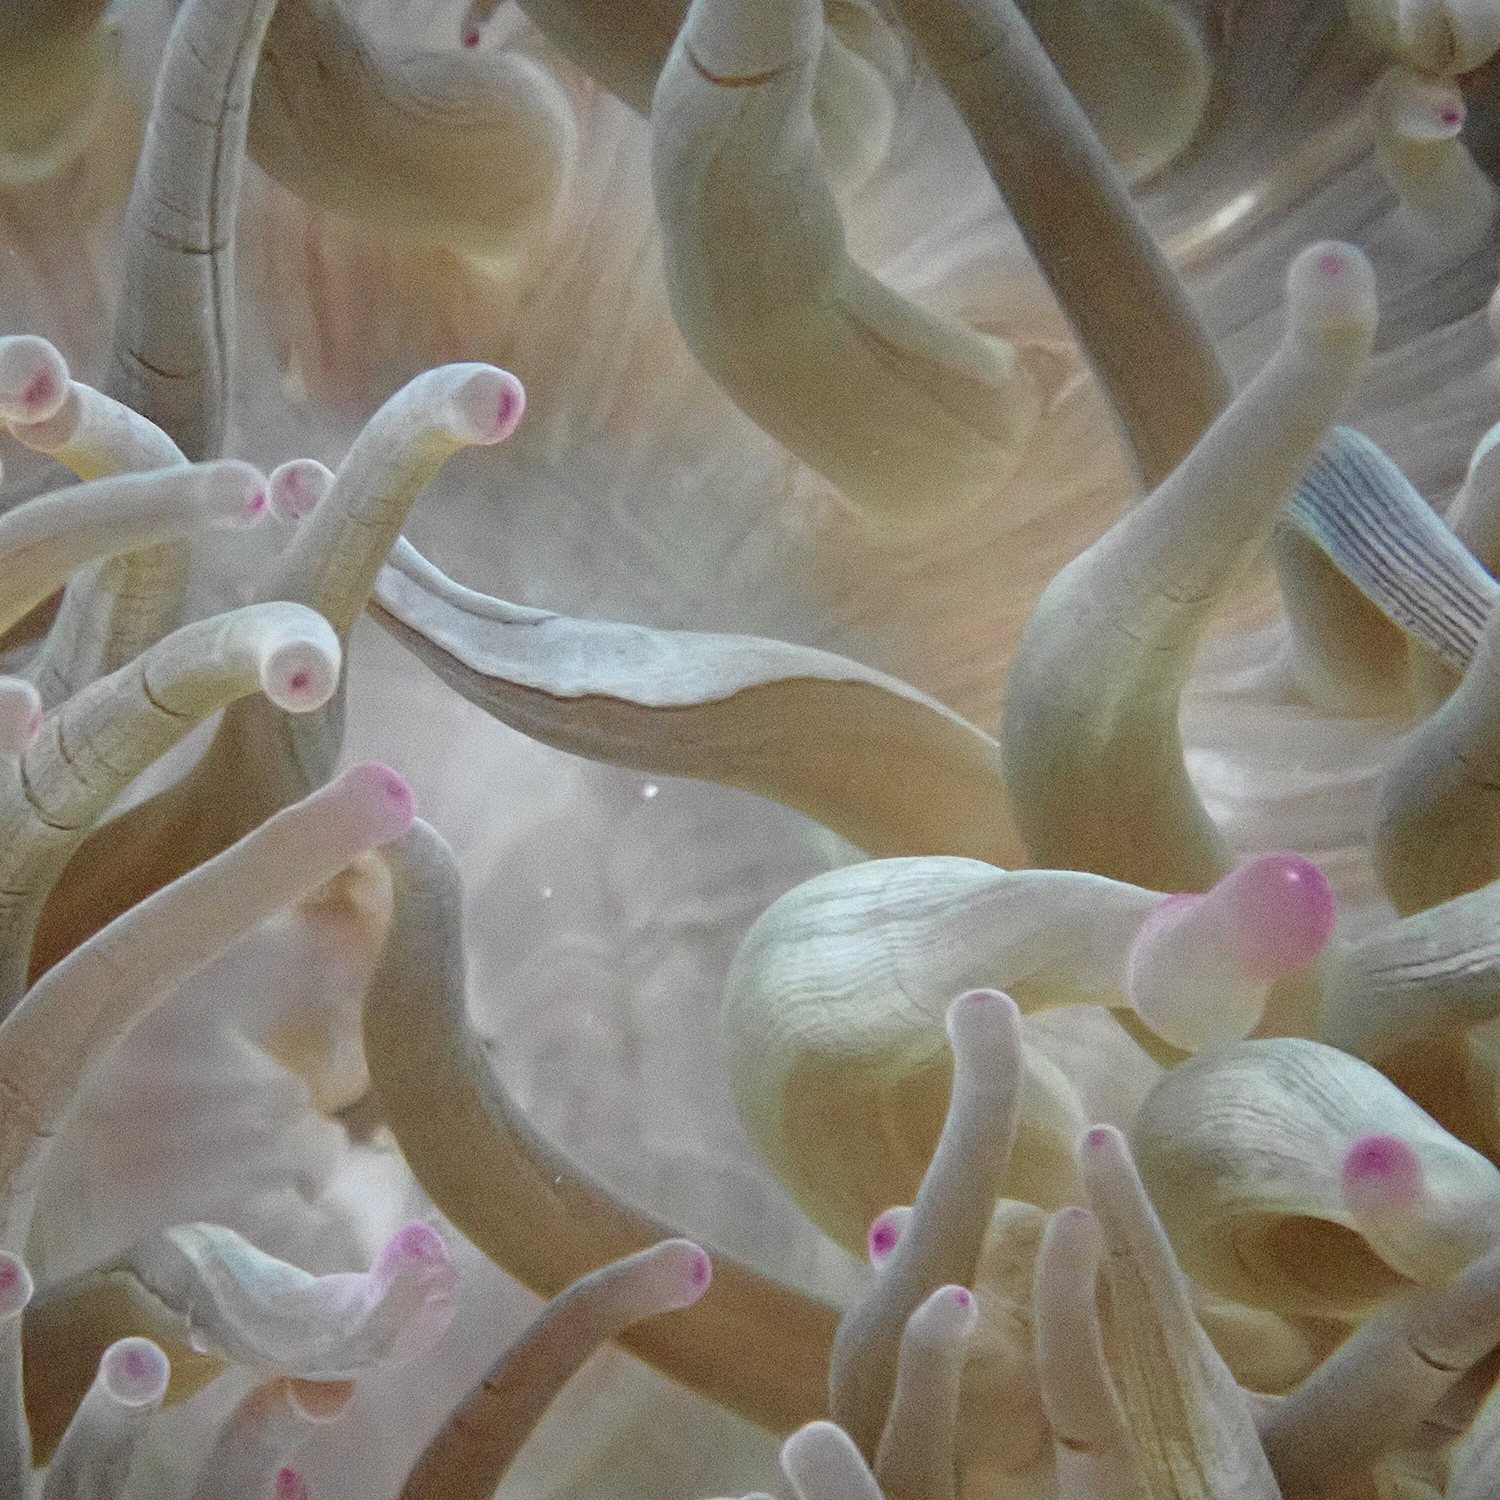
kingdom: Animalia
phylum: Cnidaria
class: Anthozoa
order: Actiniaria
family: Actiniidae
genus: Entacmaea
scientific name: Entacmaea quadricolor
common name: Bulb tentacle sea anemone
